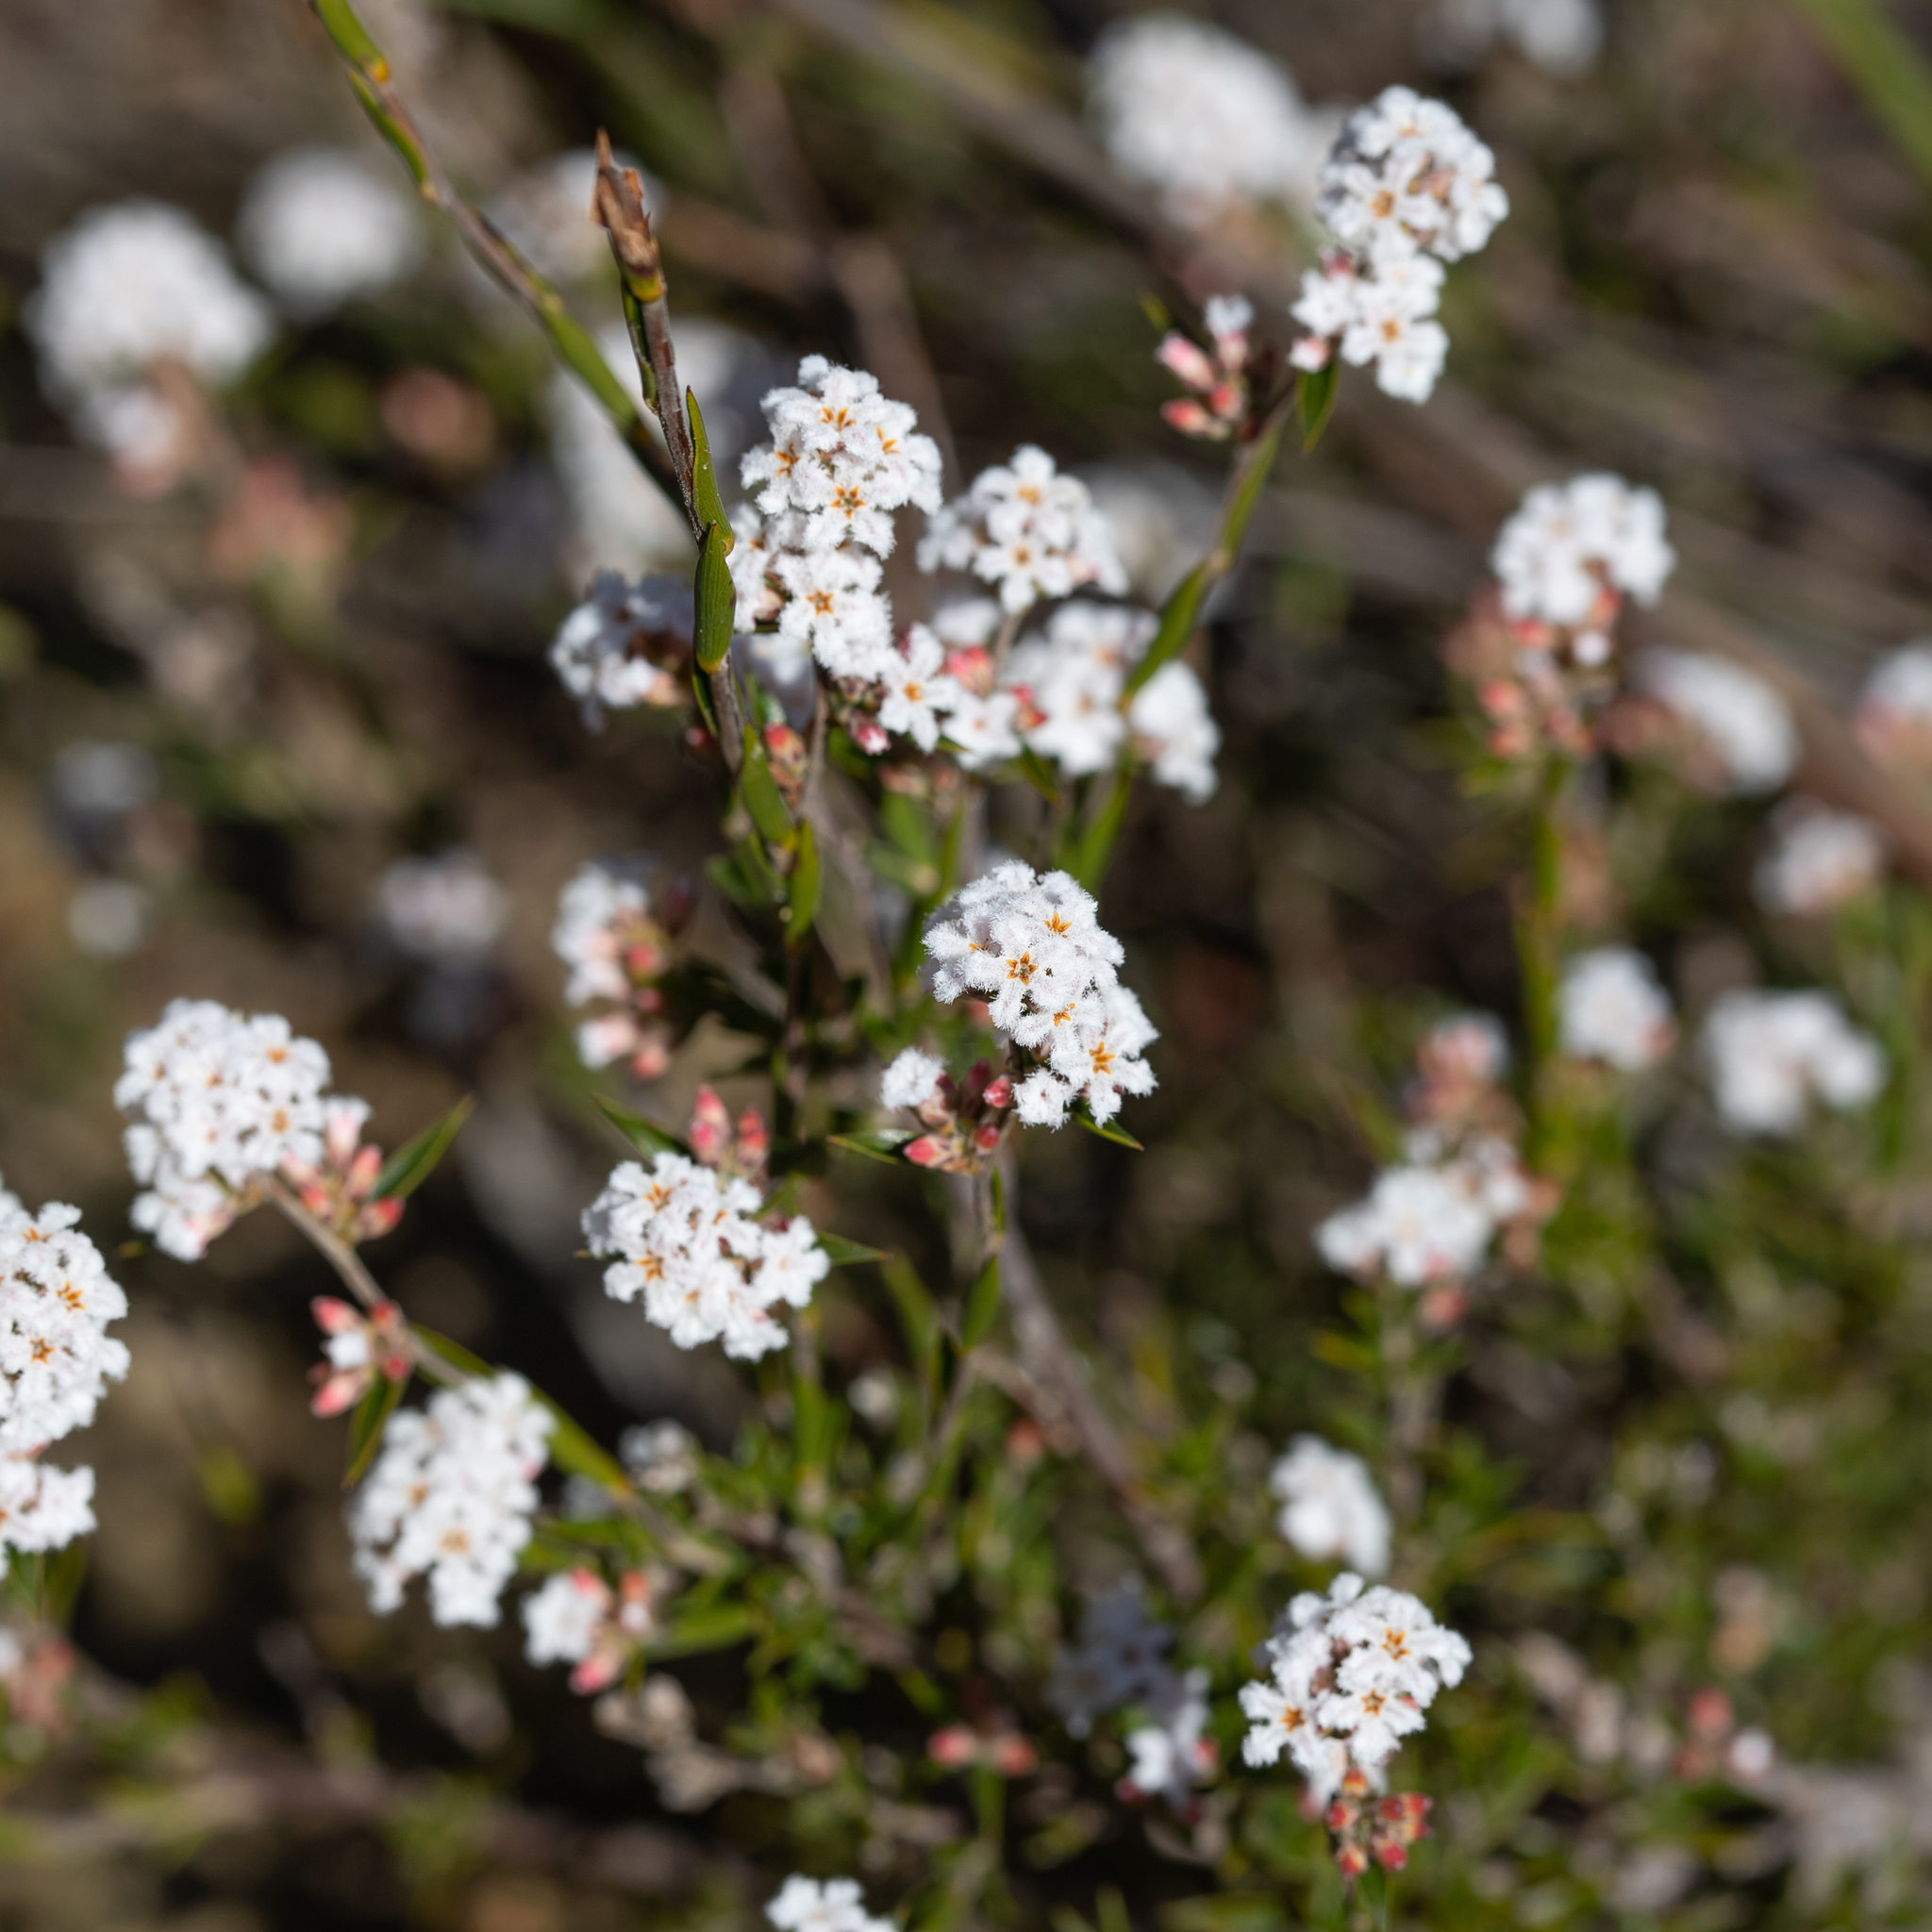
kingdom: Plantae
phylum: Tracheophyta
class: Magnoliopsida
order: Ericales
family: Ericaceae
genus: Leucopogon
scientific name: Leucopogon virgatus
